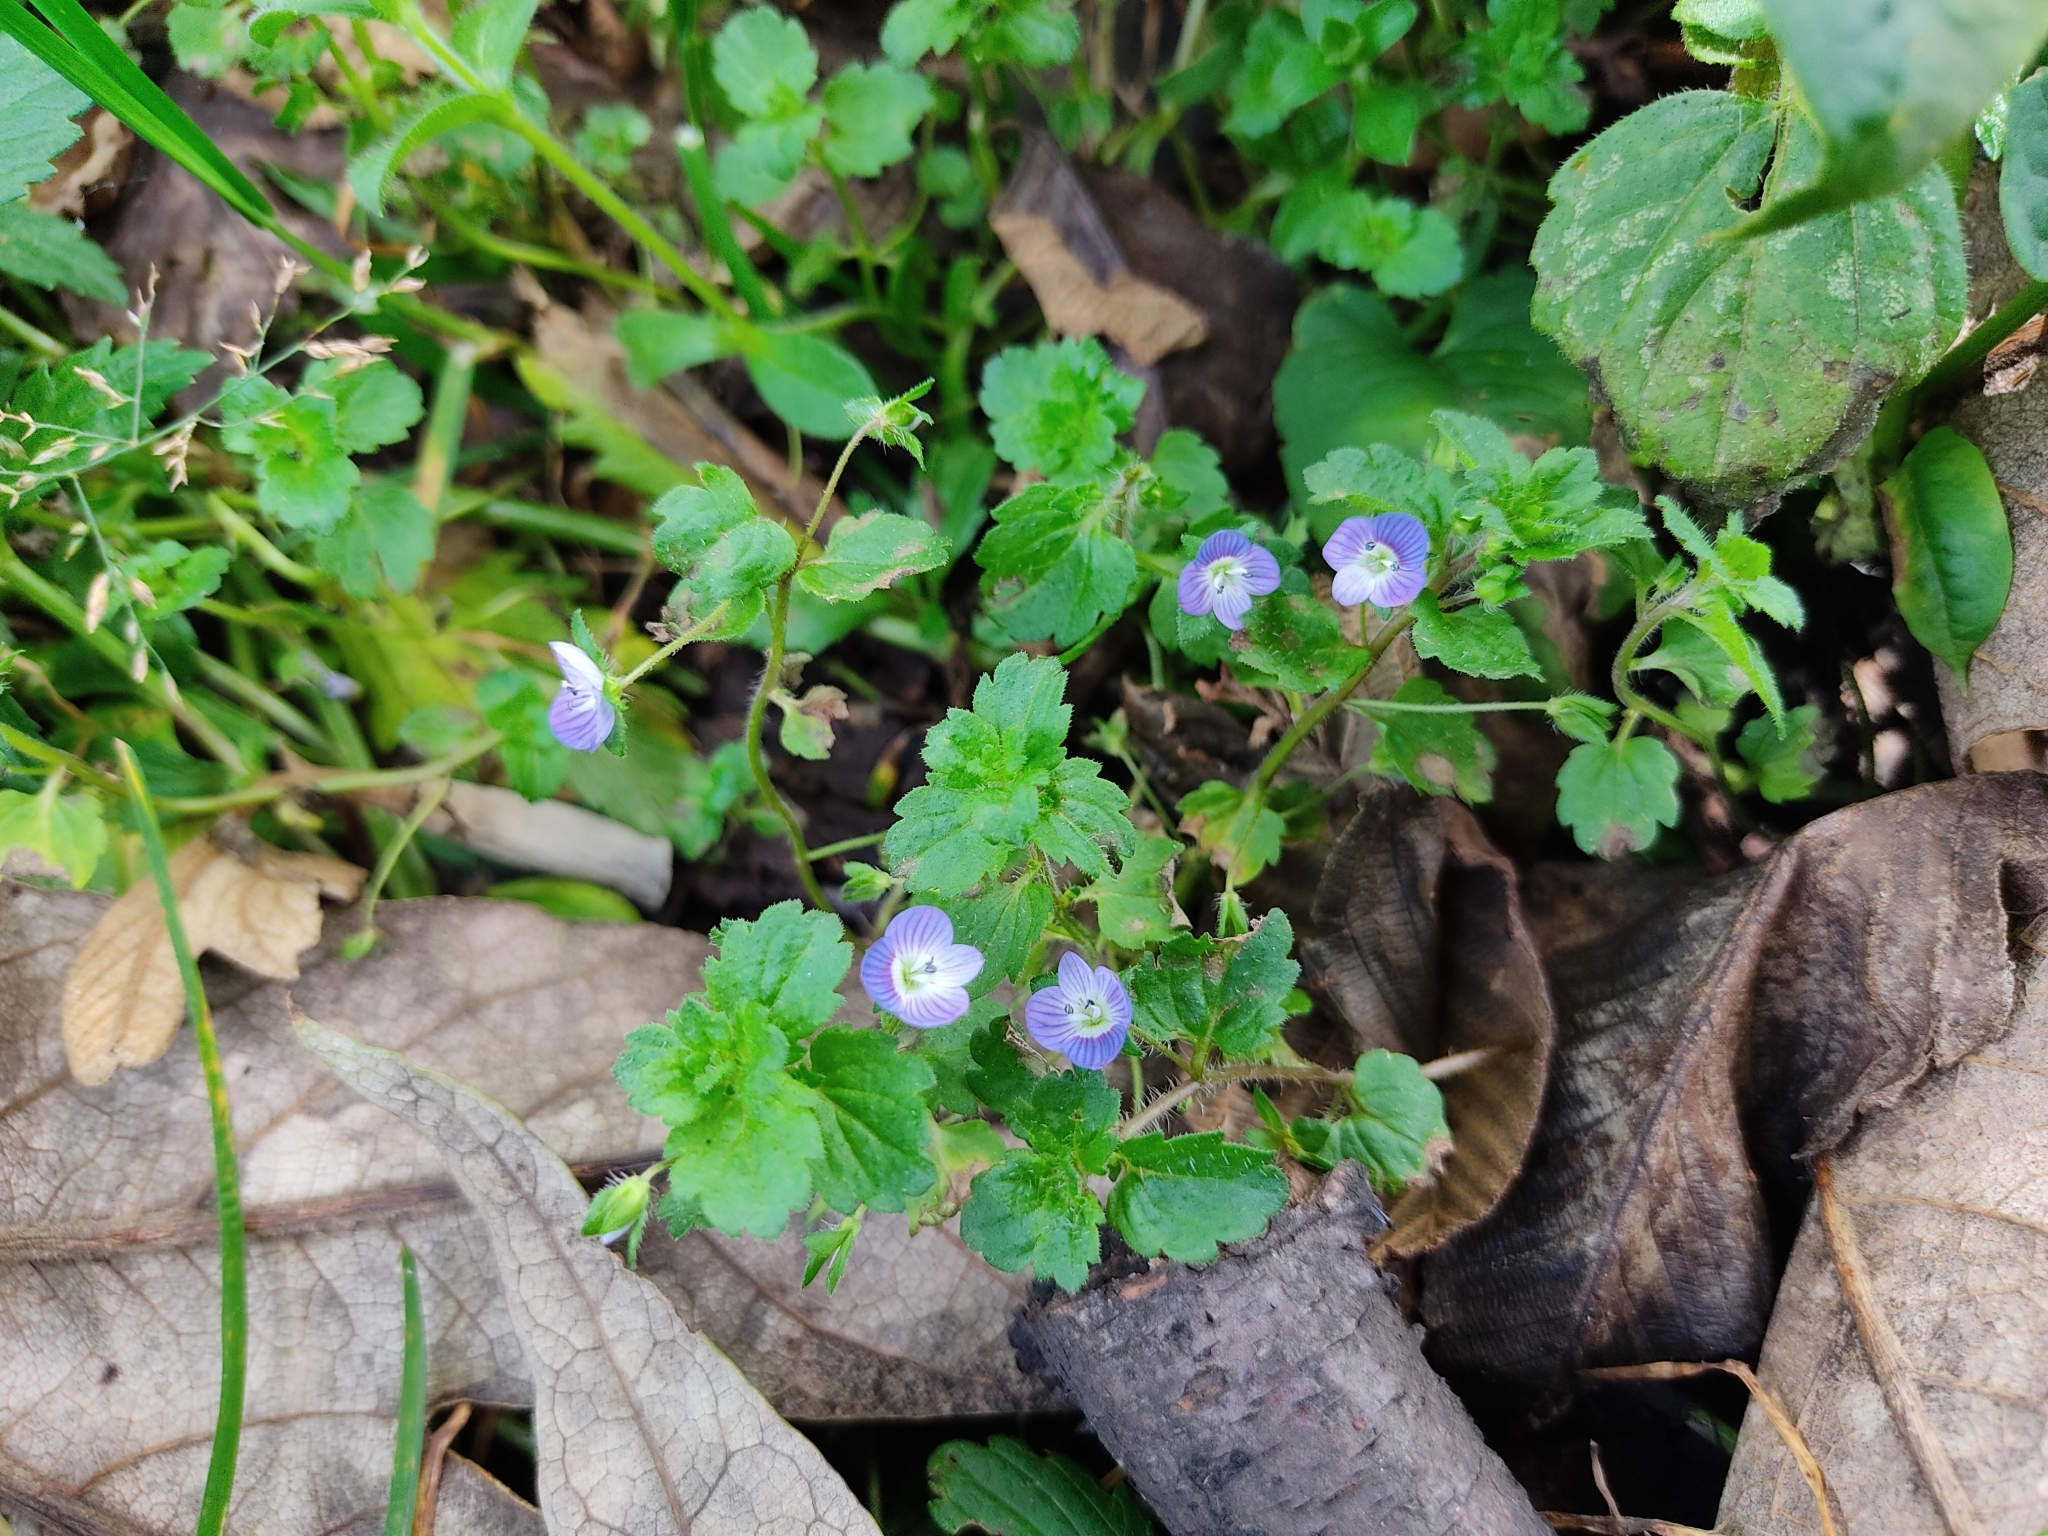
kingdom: Plantae
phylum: Tracheophyta
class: Magnoliopsida
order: Lamiales
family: Plantaginaceae
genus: Veronica
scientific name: Veronica persica
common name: Common field-speedwell
